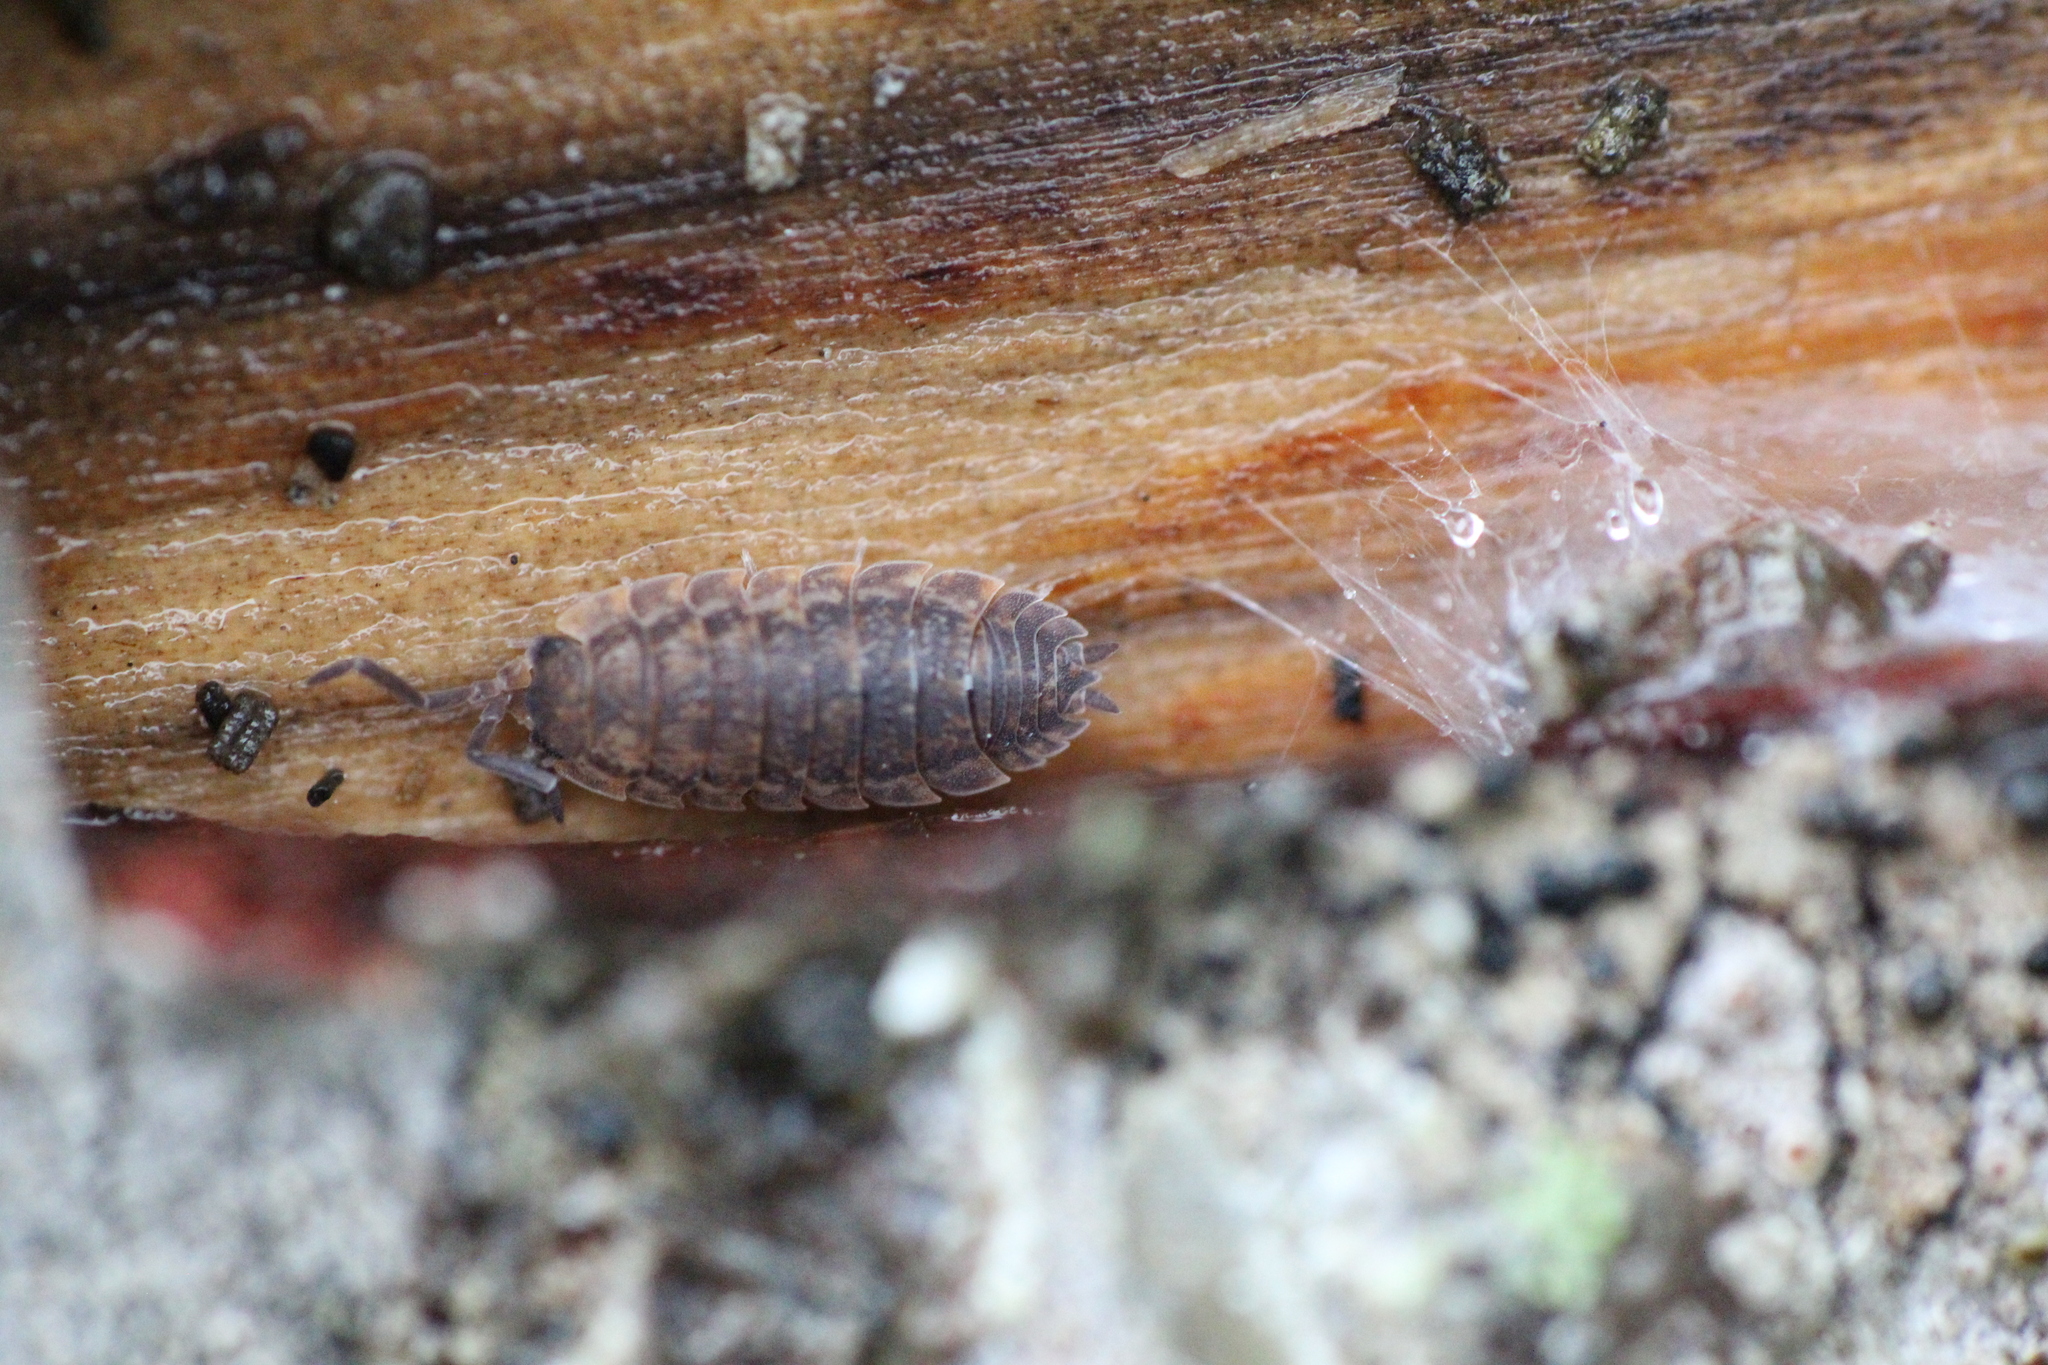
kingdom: Animalia
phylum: Arthropoda
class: Malacostraca
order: Isopoda
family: Porcellionidae
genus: Porcellio
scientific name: Porcellio scaber
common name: Common rough woodlouse
